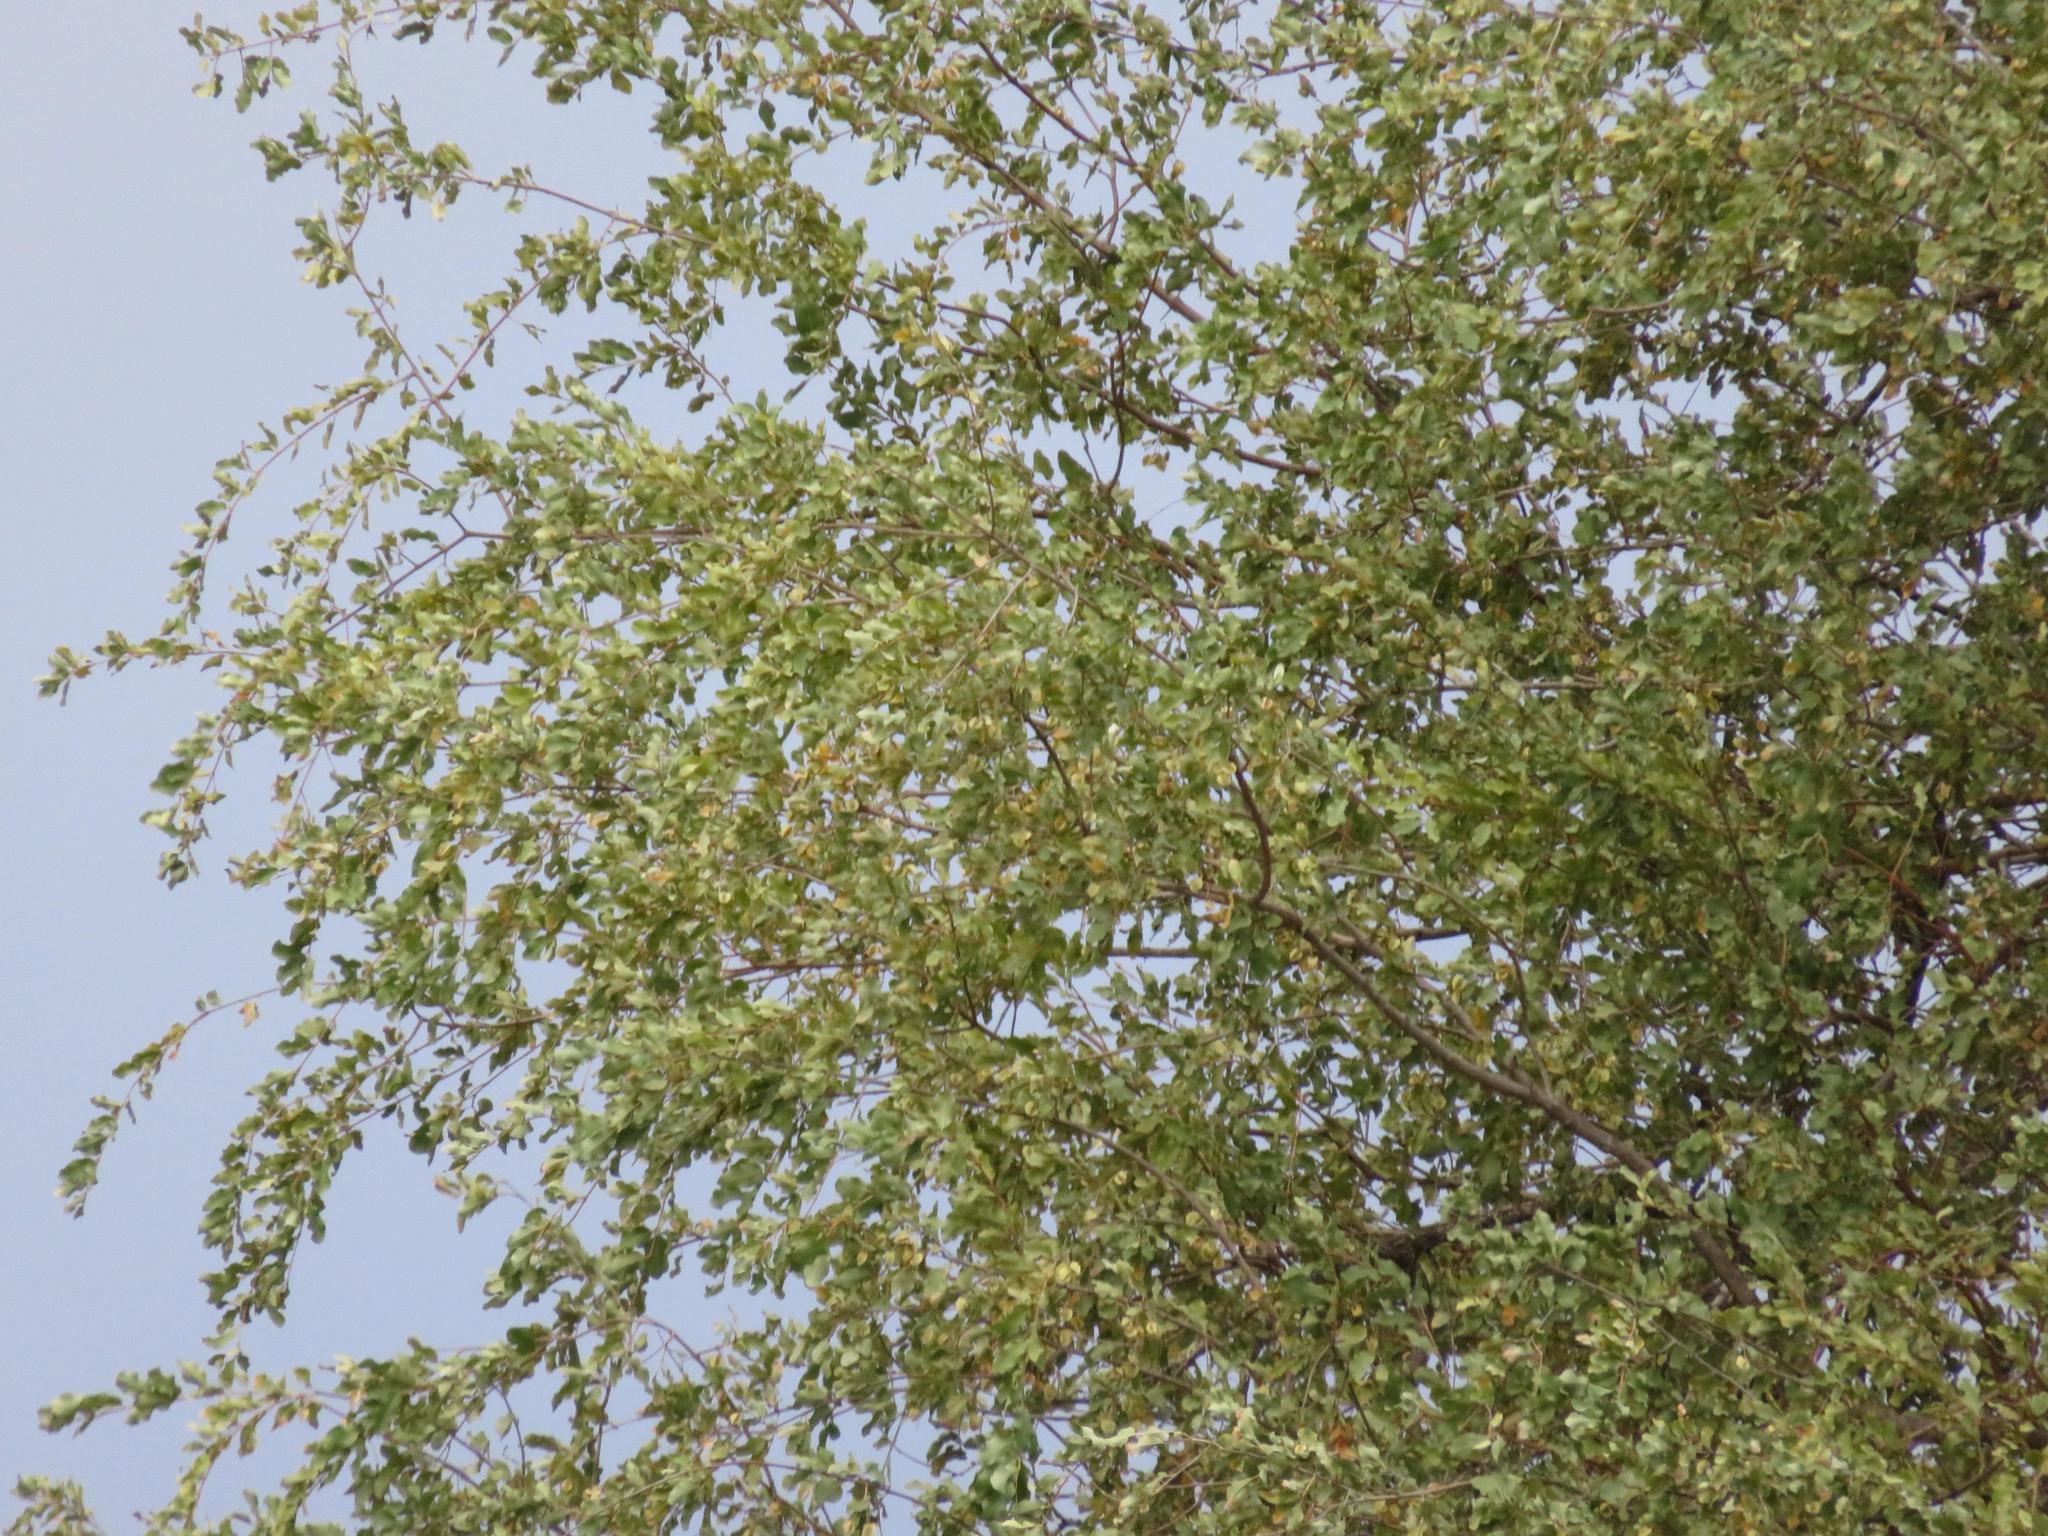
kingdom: Plantae
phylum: Tracheophyta
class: Magnoliopsida
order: Myrtales
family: Combretaceae
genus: Combretum
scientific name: Combretum imberbe
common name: Leadwood
